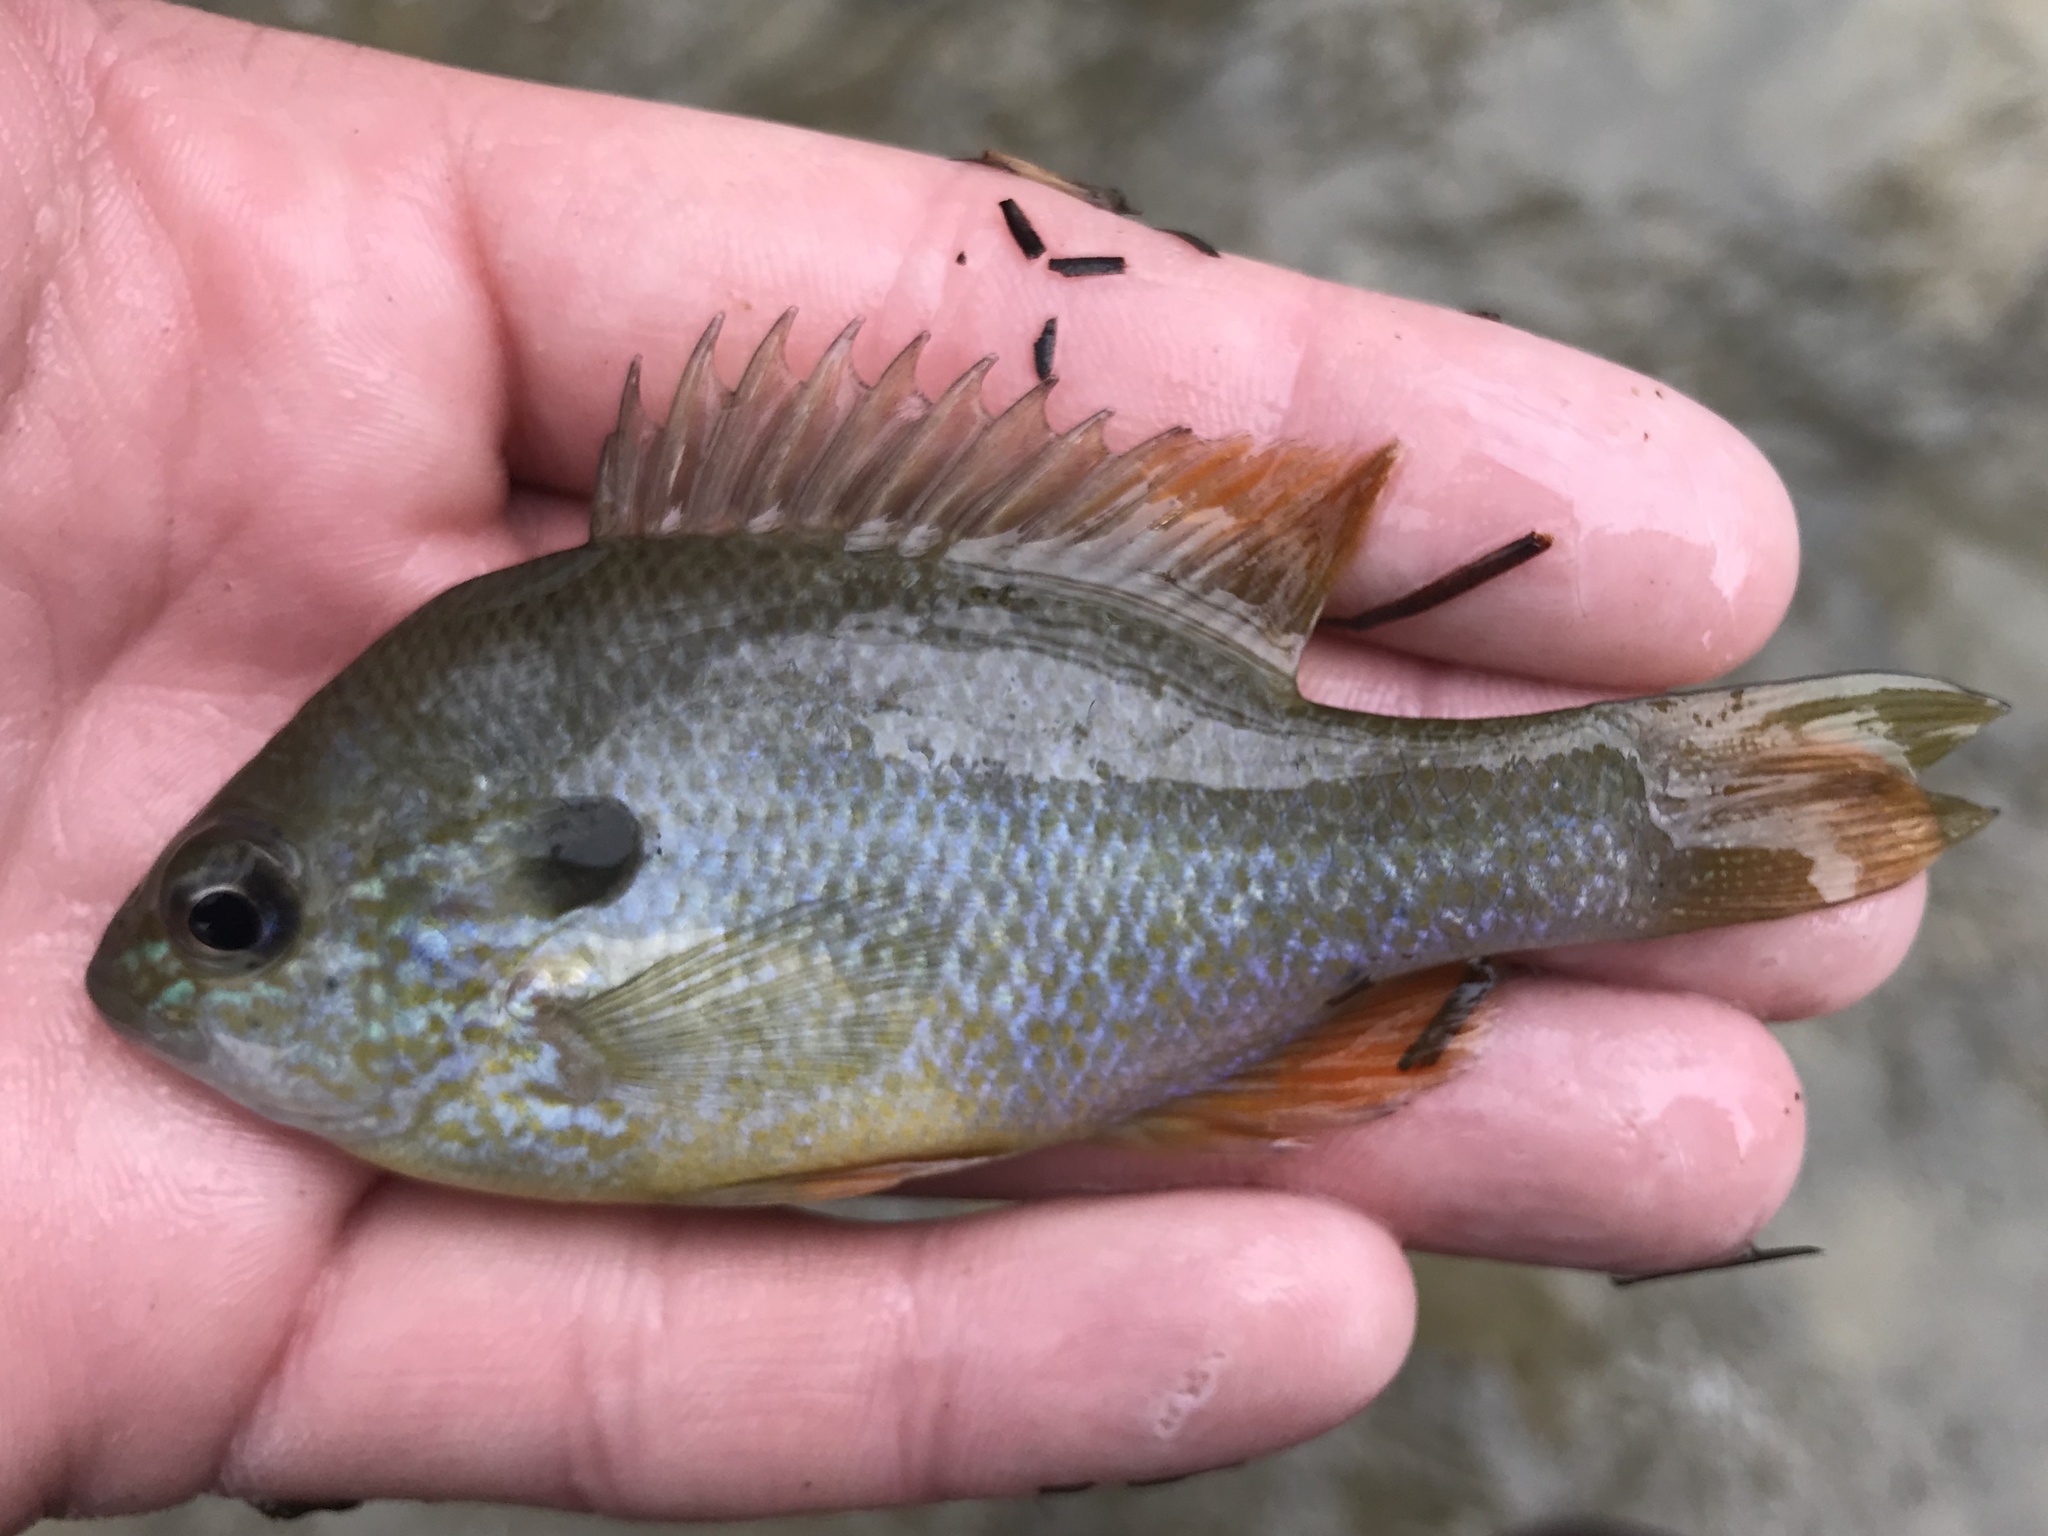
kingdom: Animalia
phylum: Chordata
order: Perciformes
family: Centrarchidae
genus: Lepomis
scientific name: Lepomis megalotis
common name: Longear sunfish
